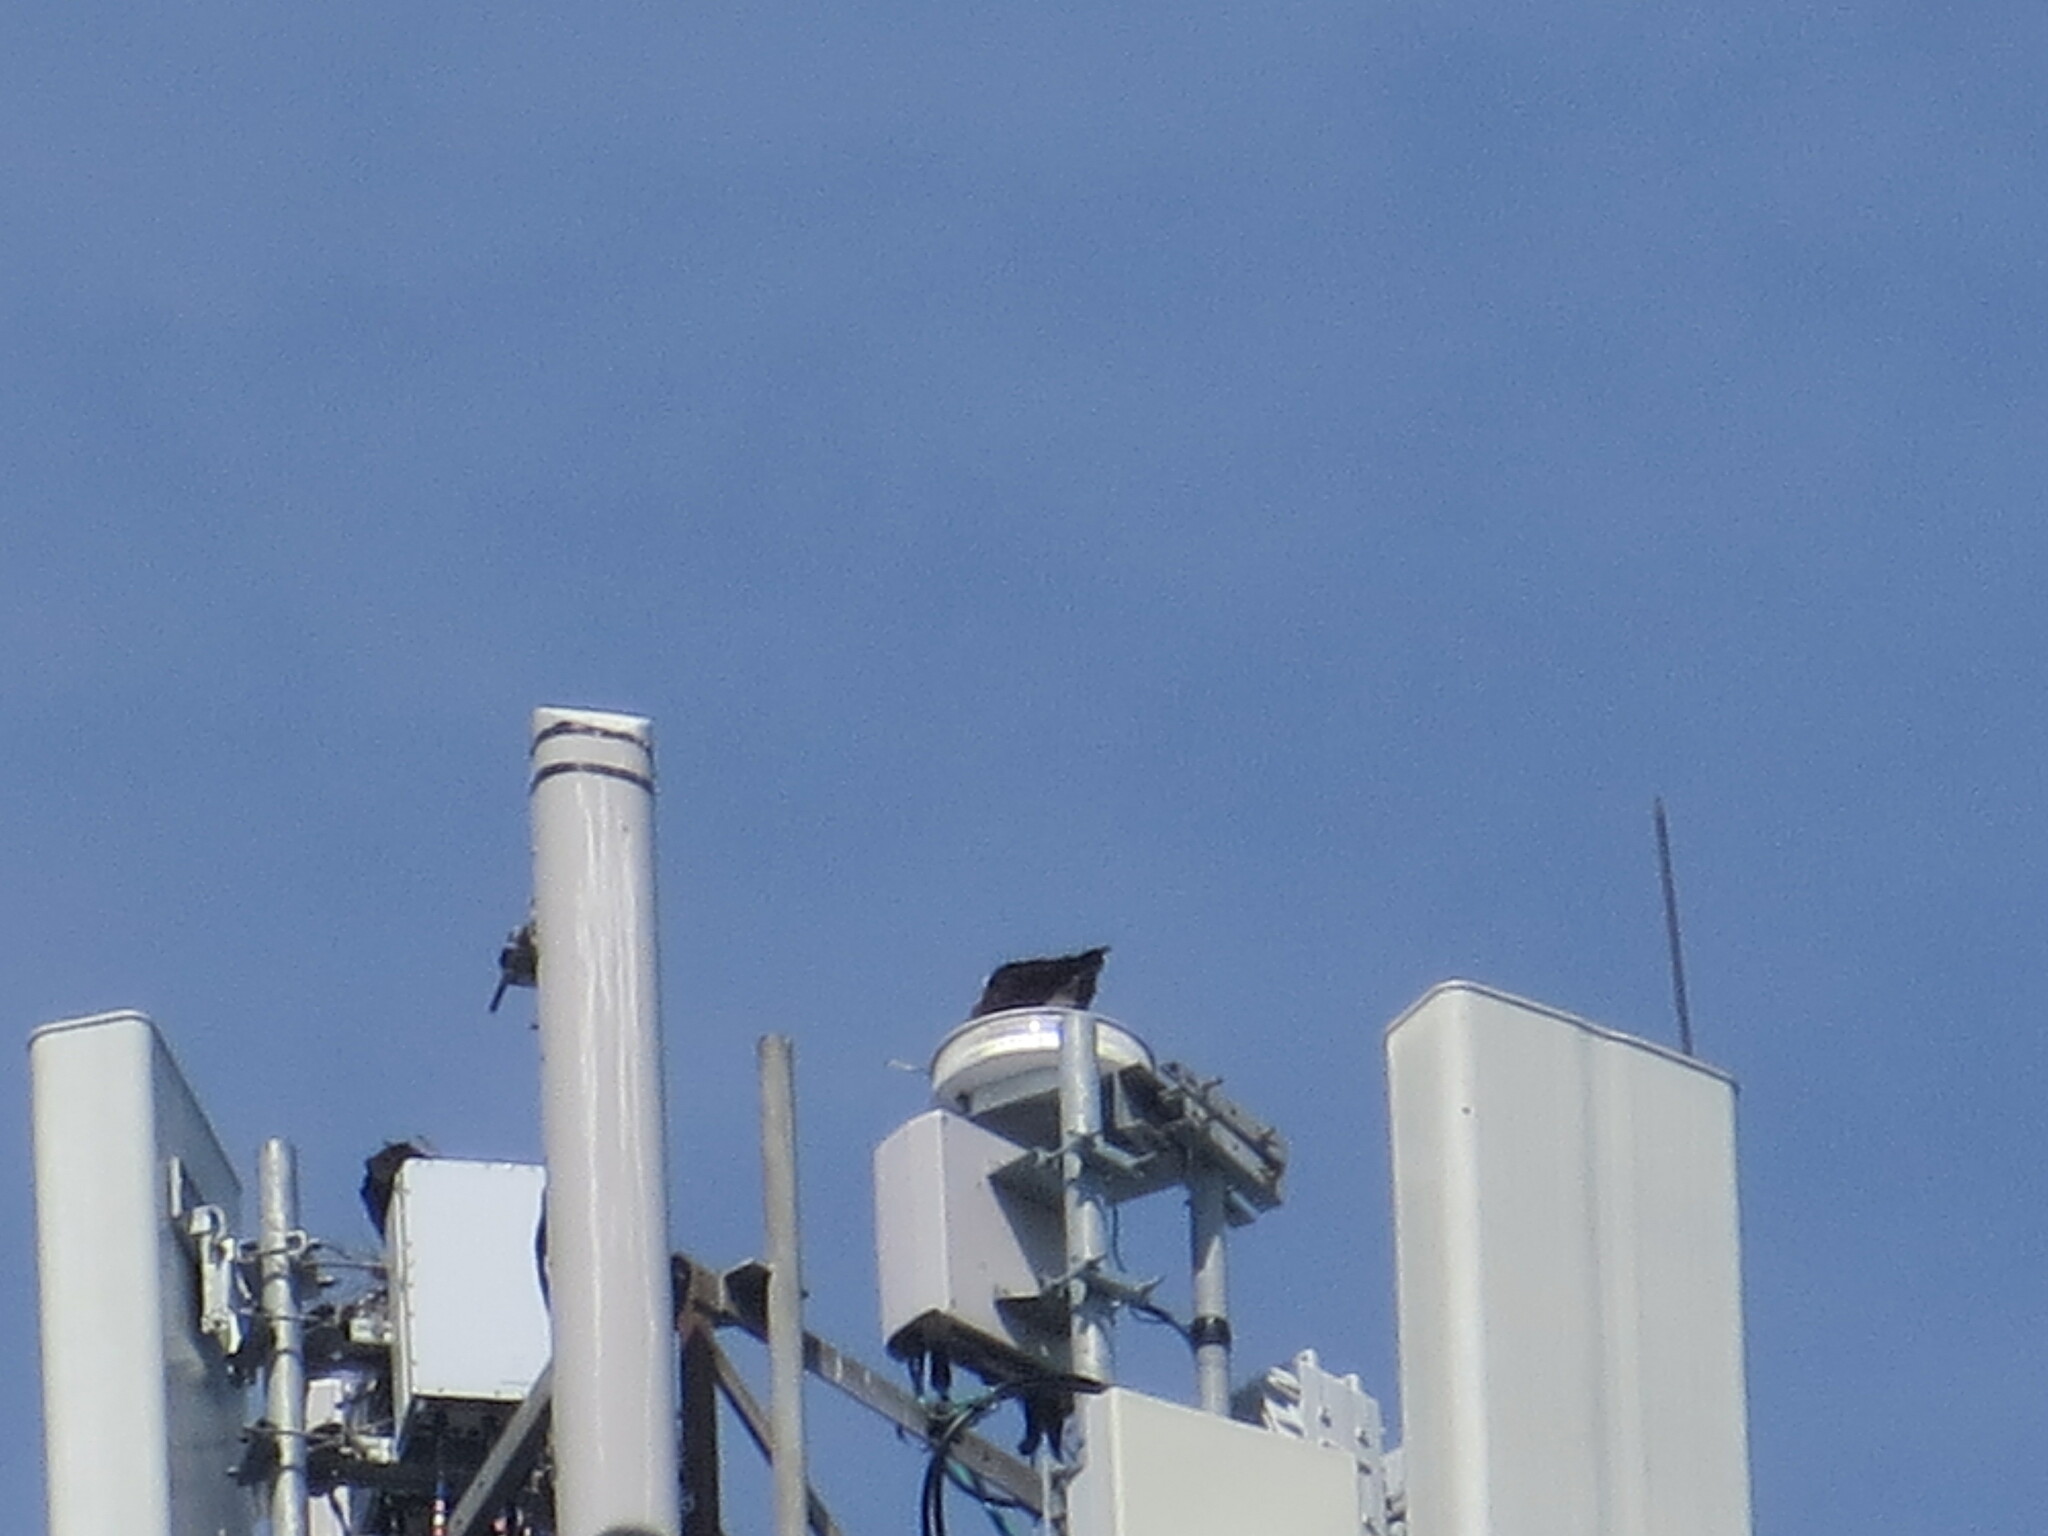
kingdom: Animalia
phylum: Chordata
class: Aves
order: Accipitriformes
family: Pandionidae
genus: Pandion
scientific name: Pandion haliaetus
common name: Osprey
